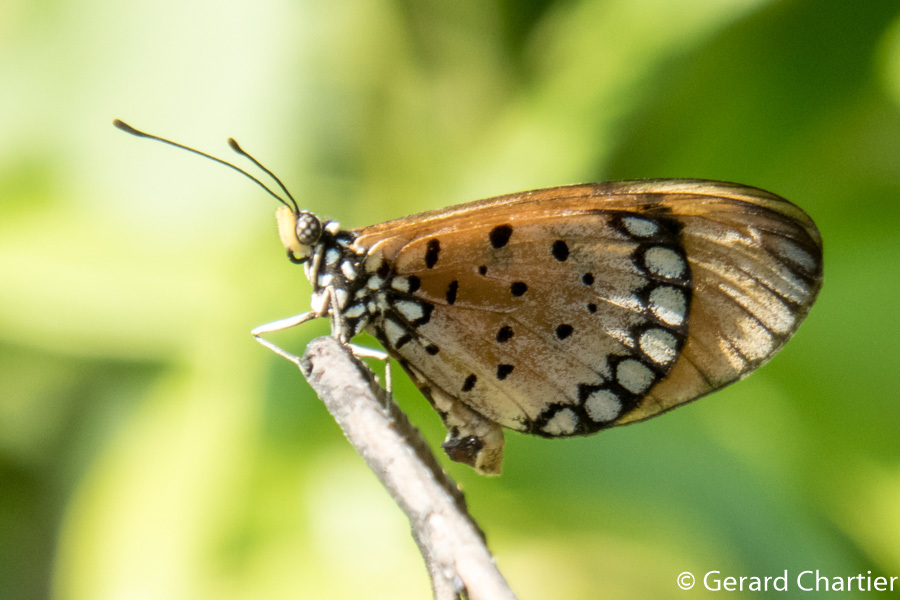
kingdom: Animalia
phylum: Arthropoda
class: Insecta
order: Lepidoptera
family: Nymphalidae
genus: Acraea
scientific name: Acraea terpsicore
